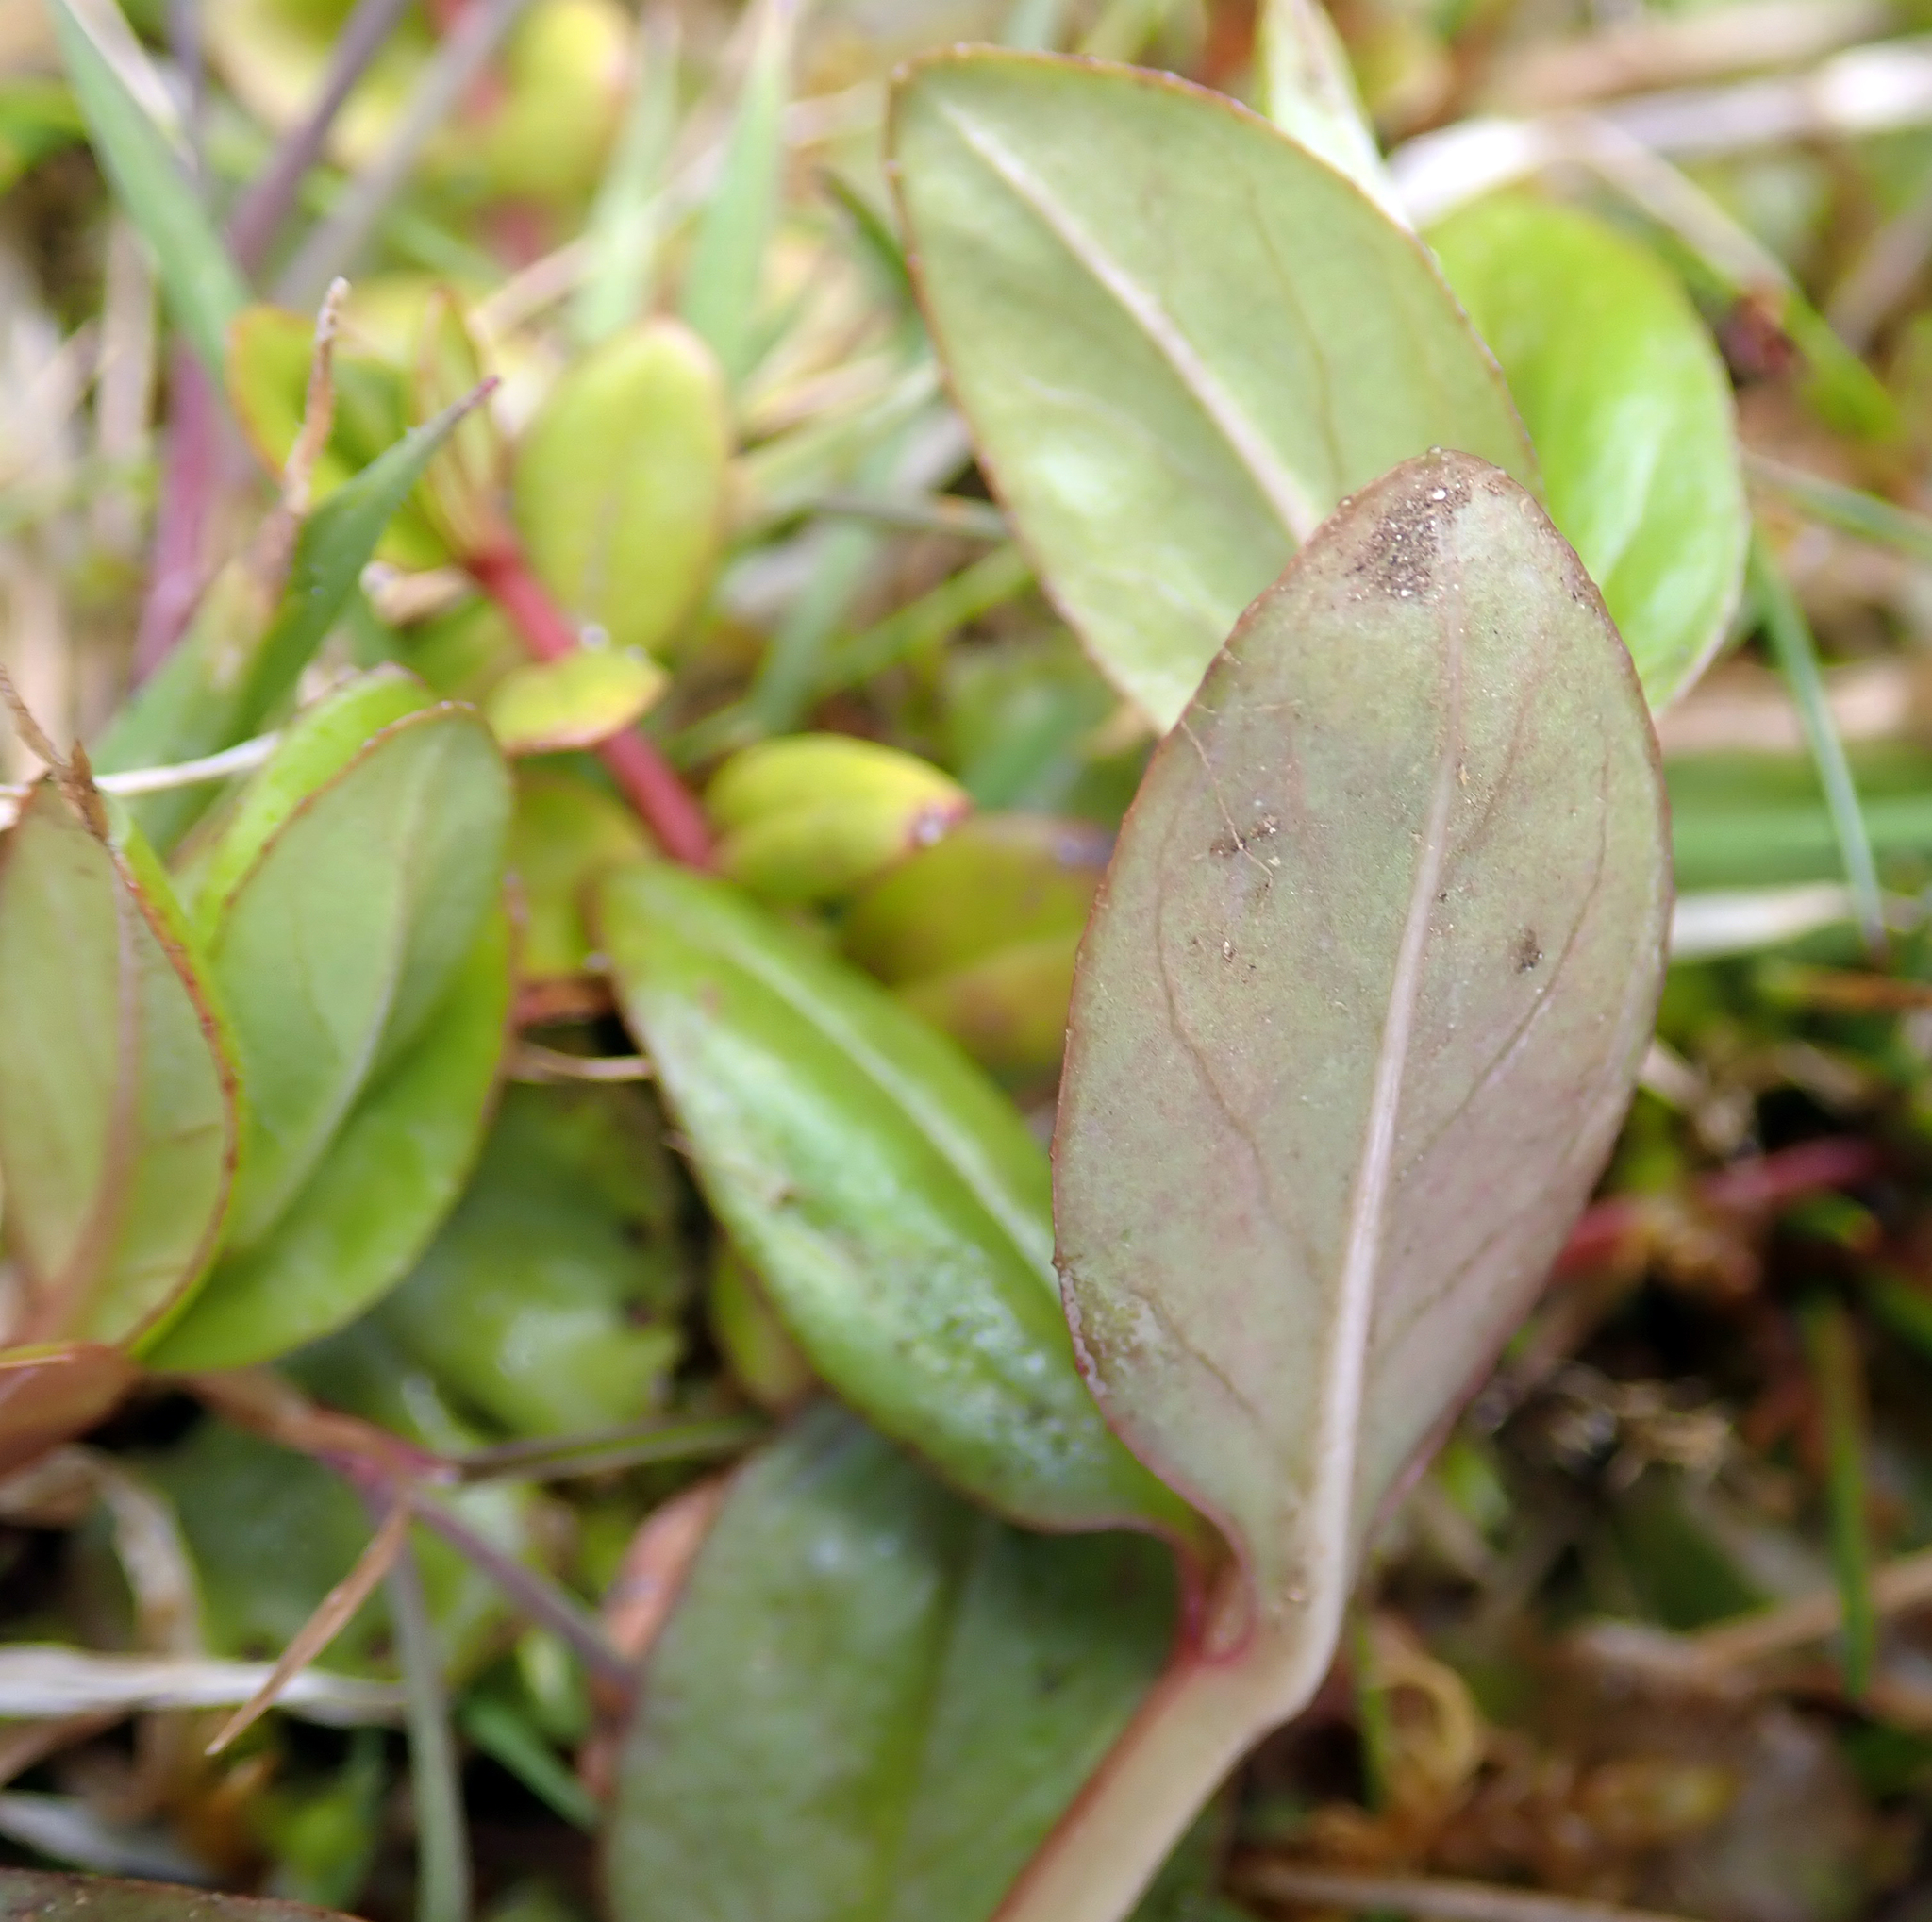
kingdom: Plantae
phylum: Tracheophyta
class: Magnoliopsida
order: Myrtales
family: Onagraceae
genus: Epilobium
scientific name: Epilobium chionanthum
